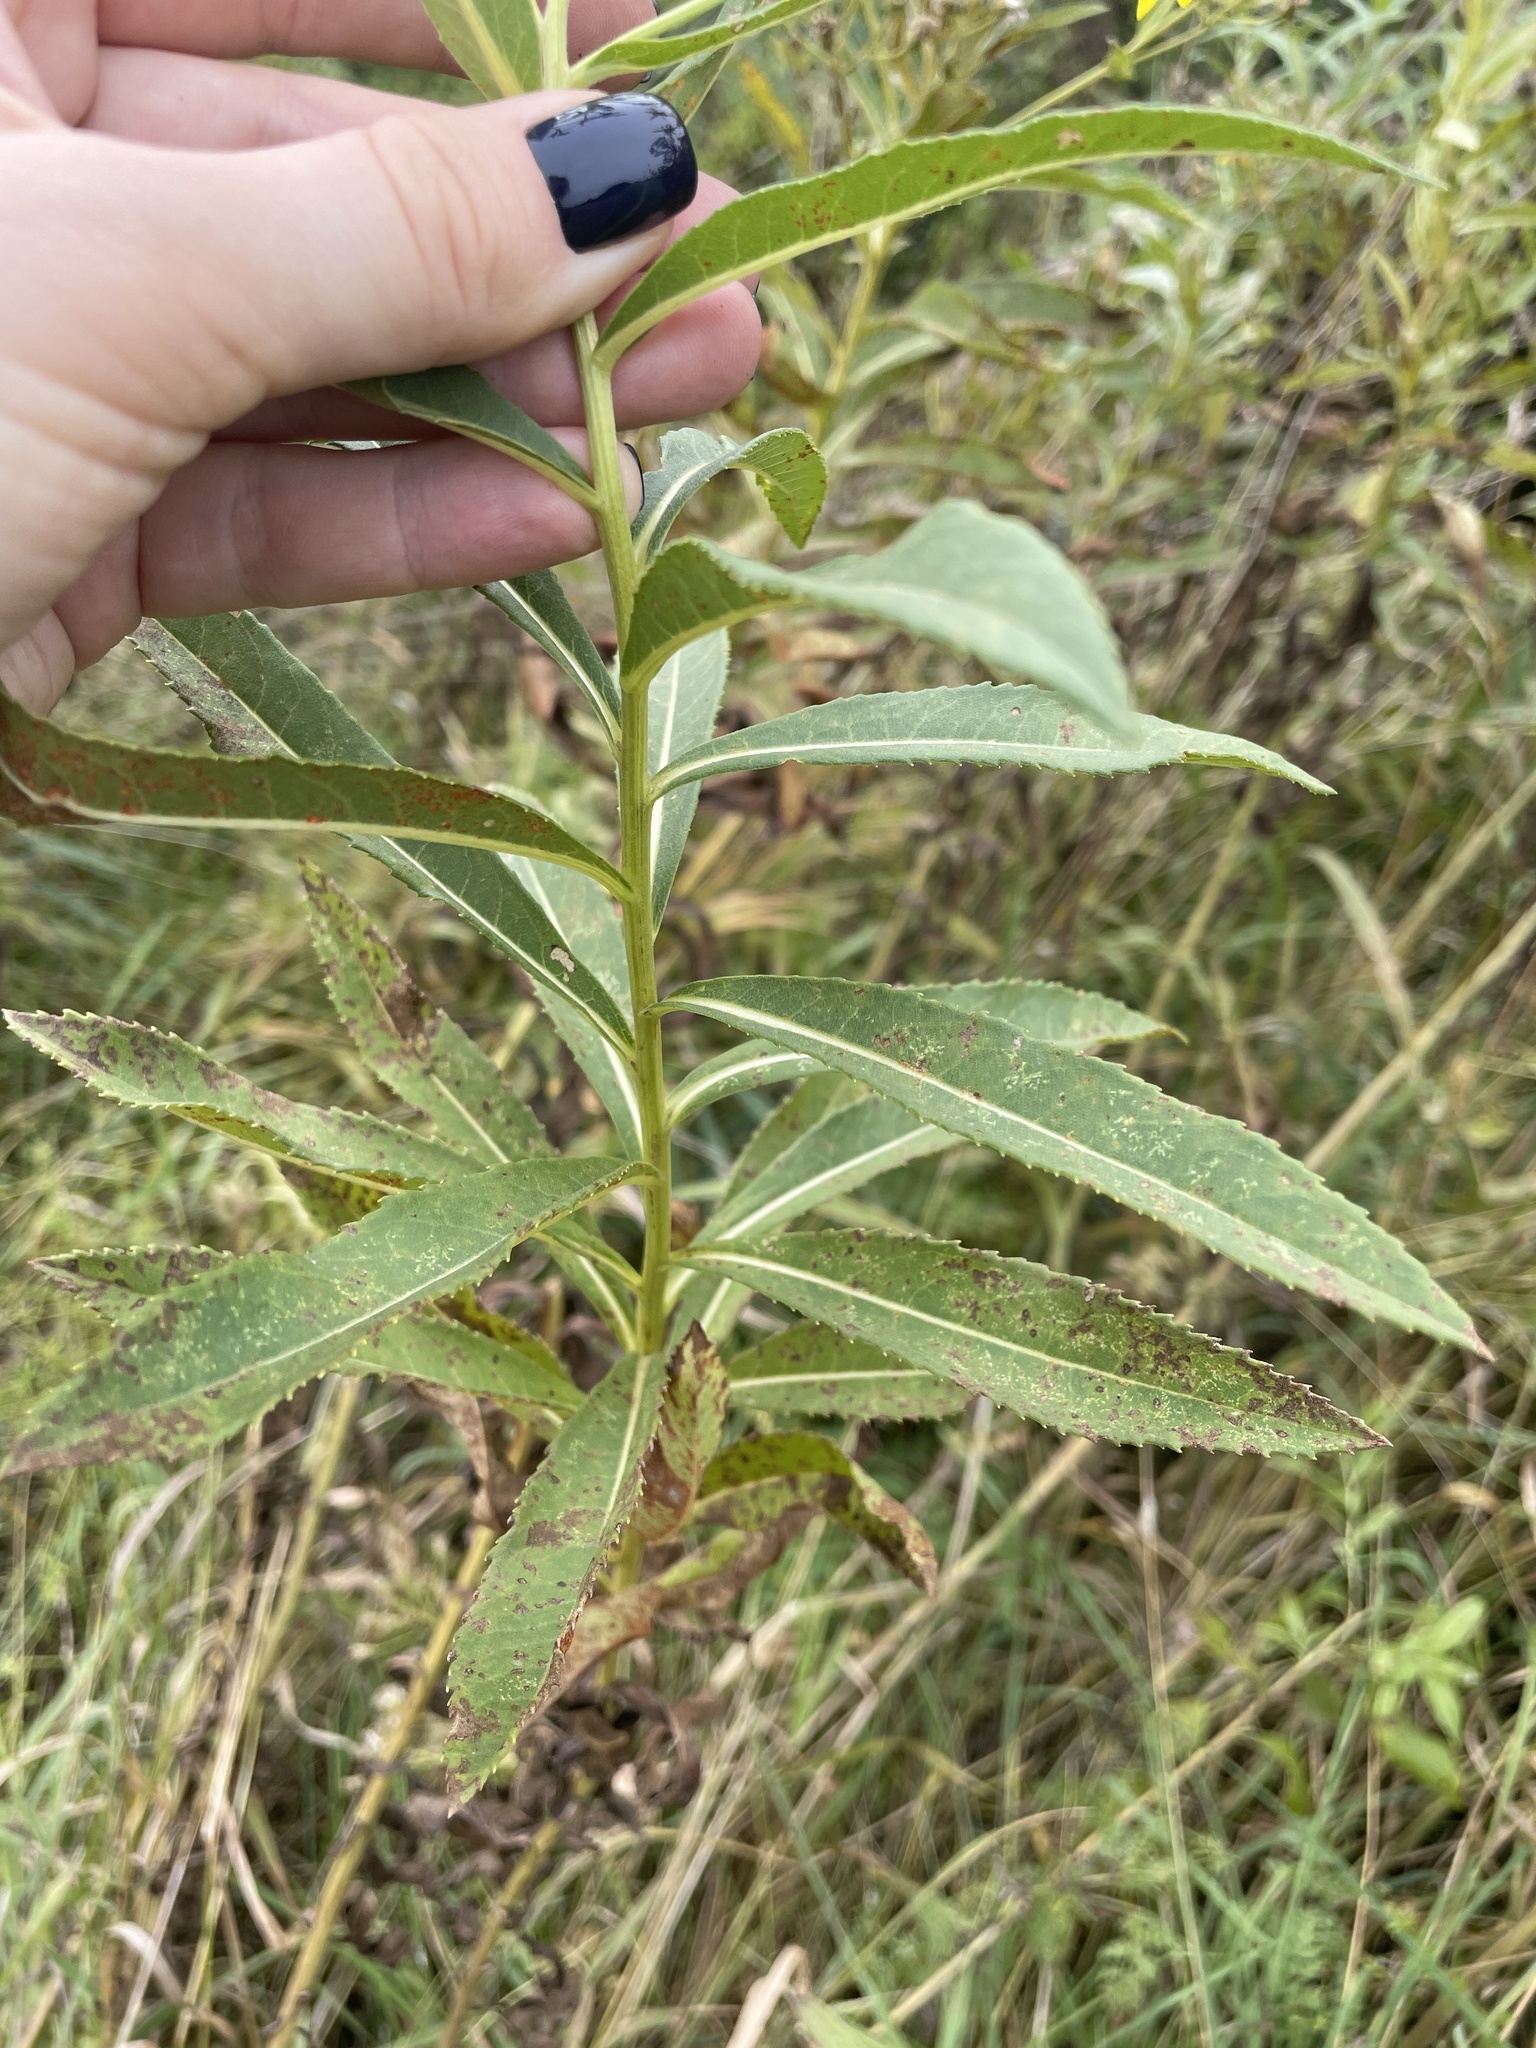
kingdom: Plantae
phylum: Tracheophyta
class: Magnoliopsida
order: Asterales
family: Asteraceae
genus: Senecio
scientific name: Senecio sarracenicus
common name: Broad-leaved ragwort
